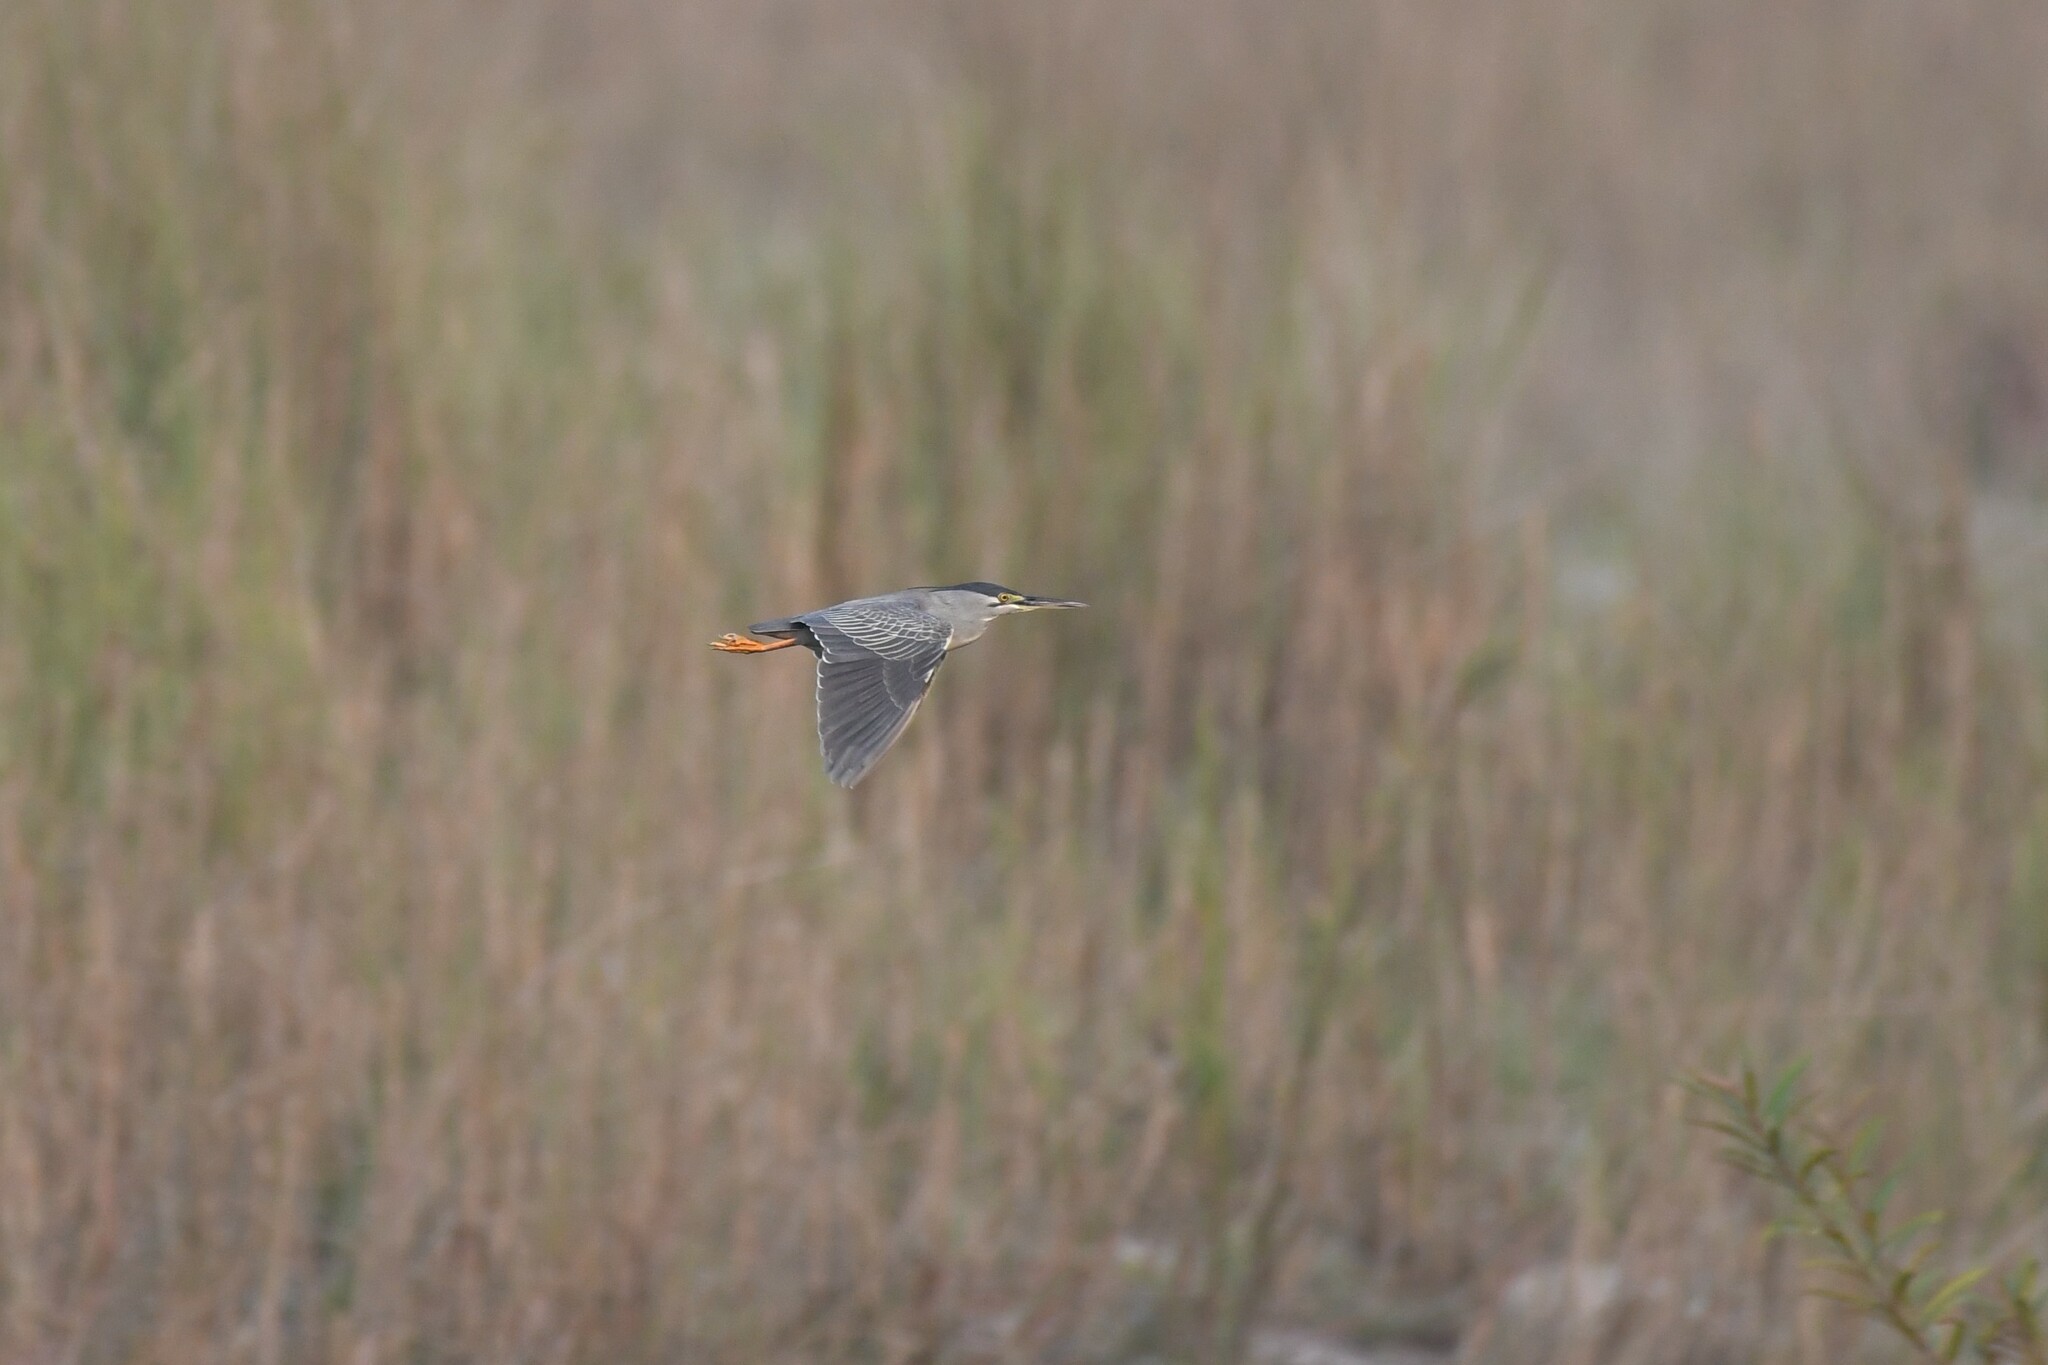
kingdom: Animalia
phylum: Chordata
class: Aves
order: Pelecaniformes
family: Ardeidae
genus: Butorides
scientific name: Butorides striata
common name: Striated heron
